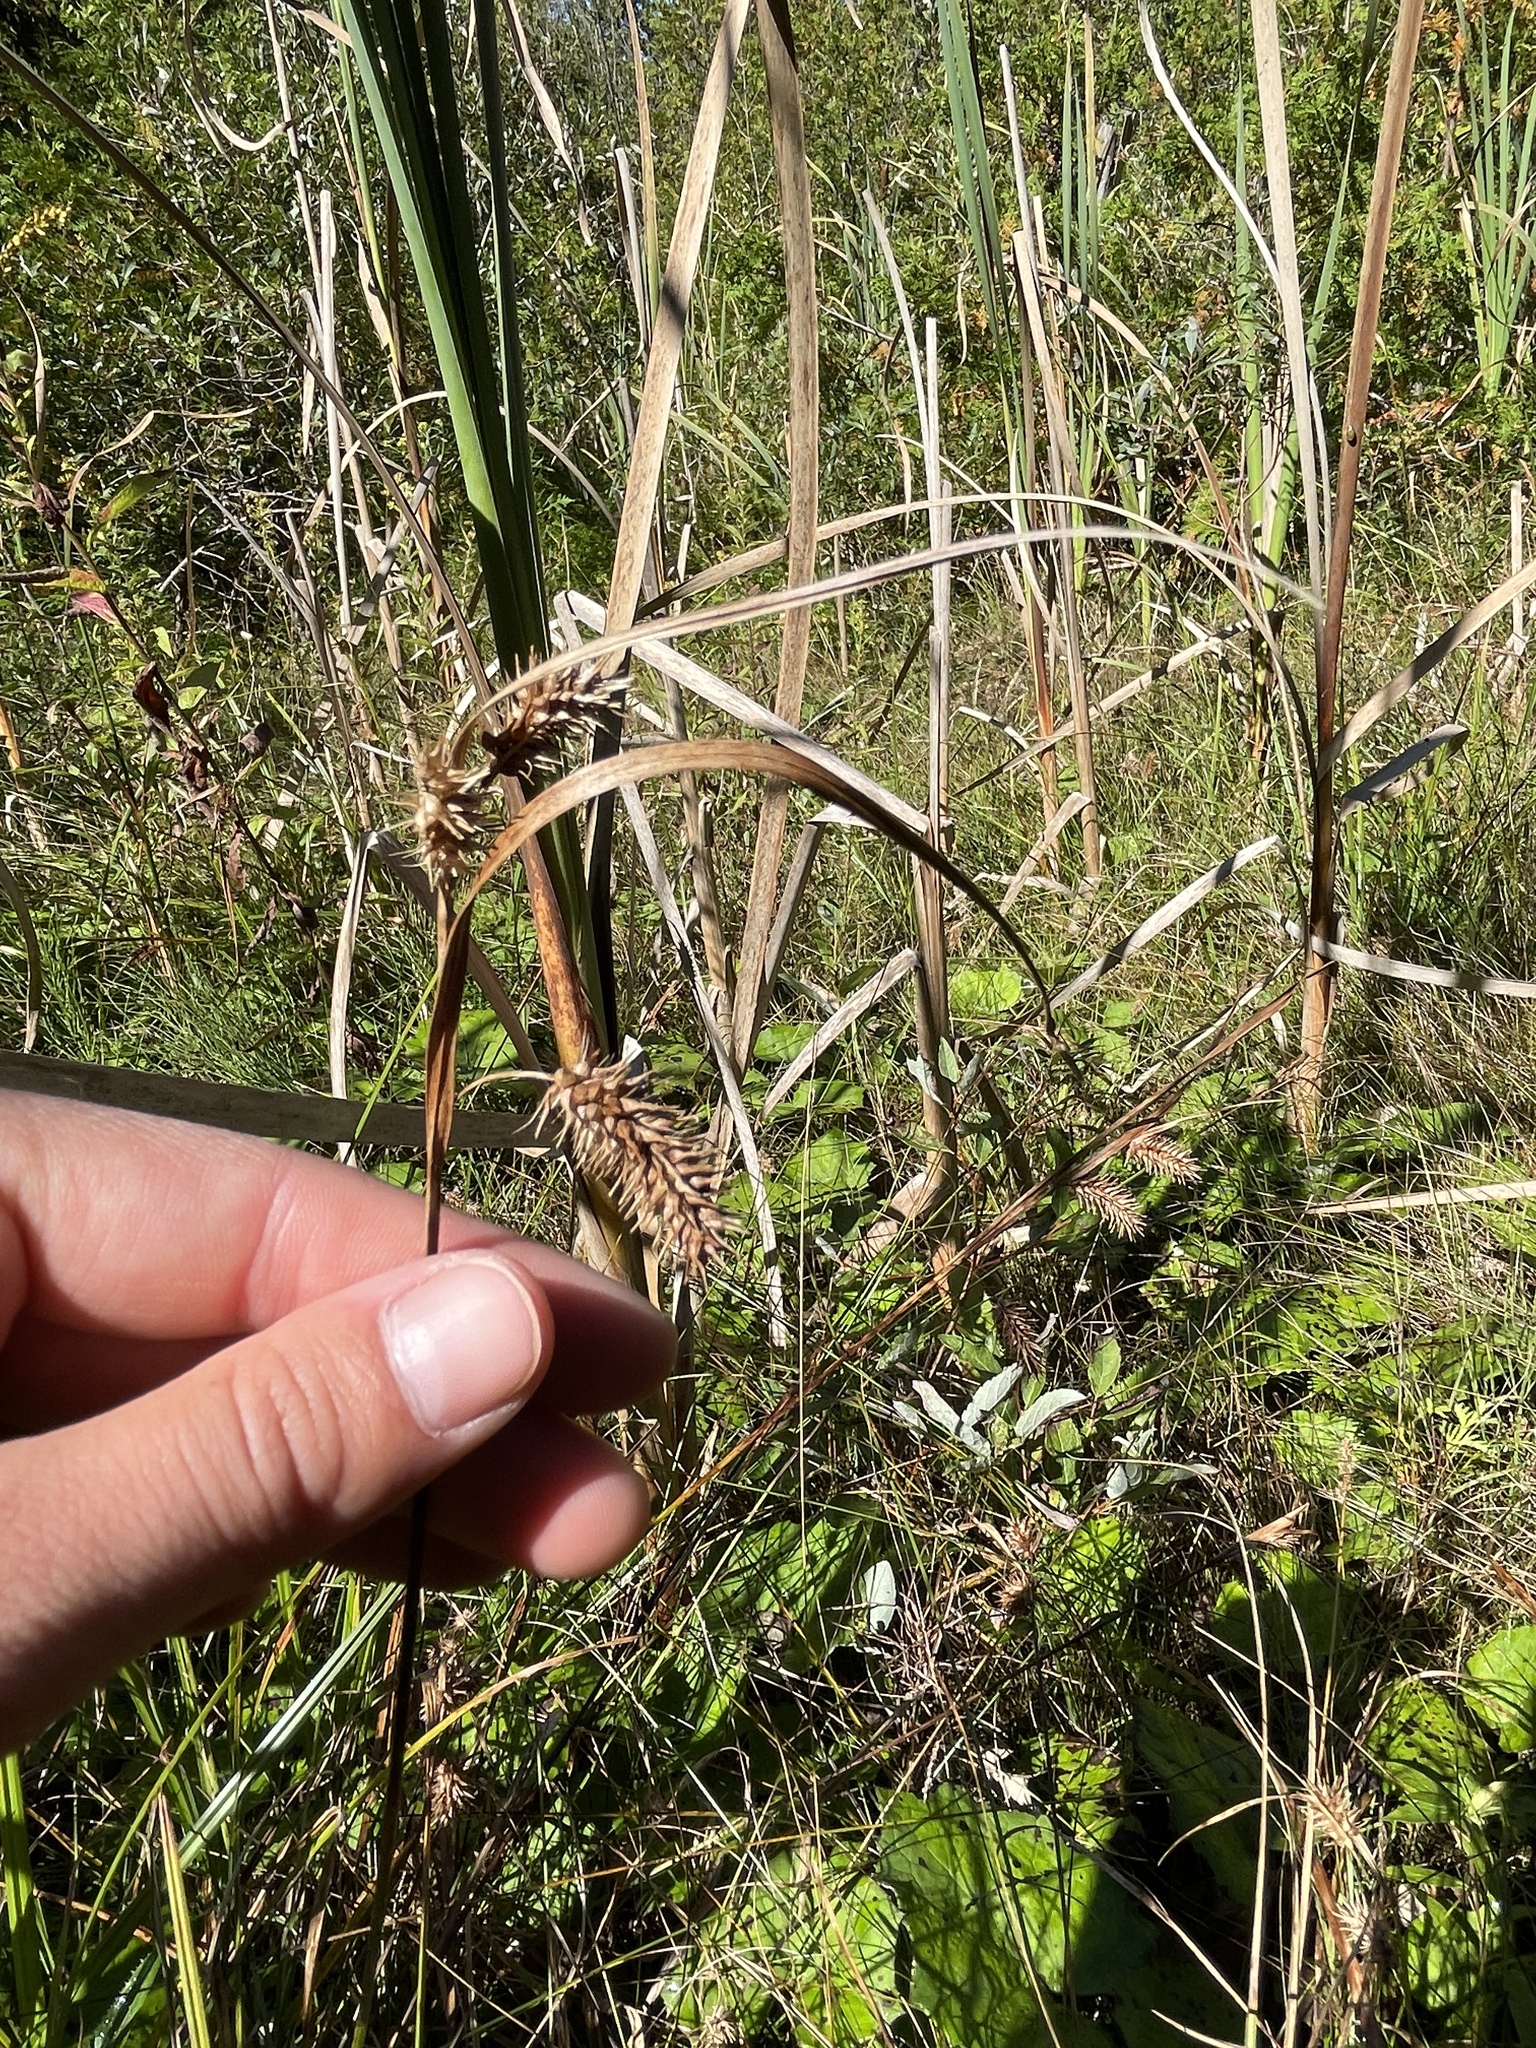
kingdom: Plantae
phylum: Tracheophyta
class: Liliopsida
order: Poales
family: Cyperaceae
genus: Carex
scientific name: Carex hystericina
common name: Bottlebrush sedge
